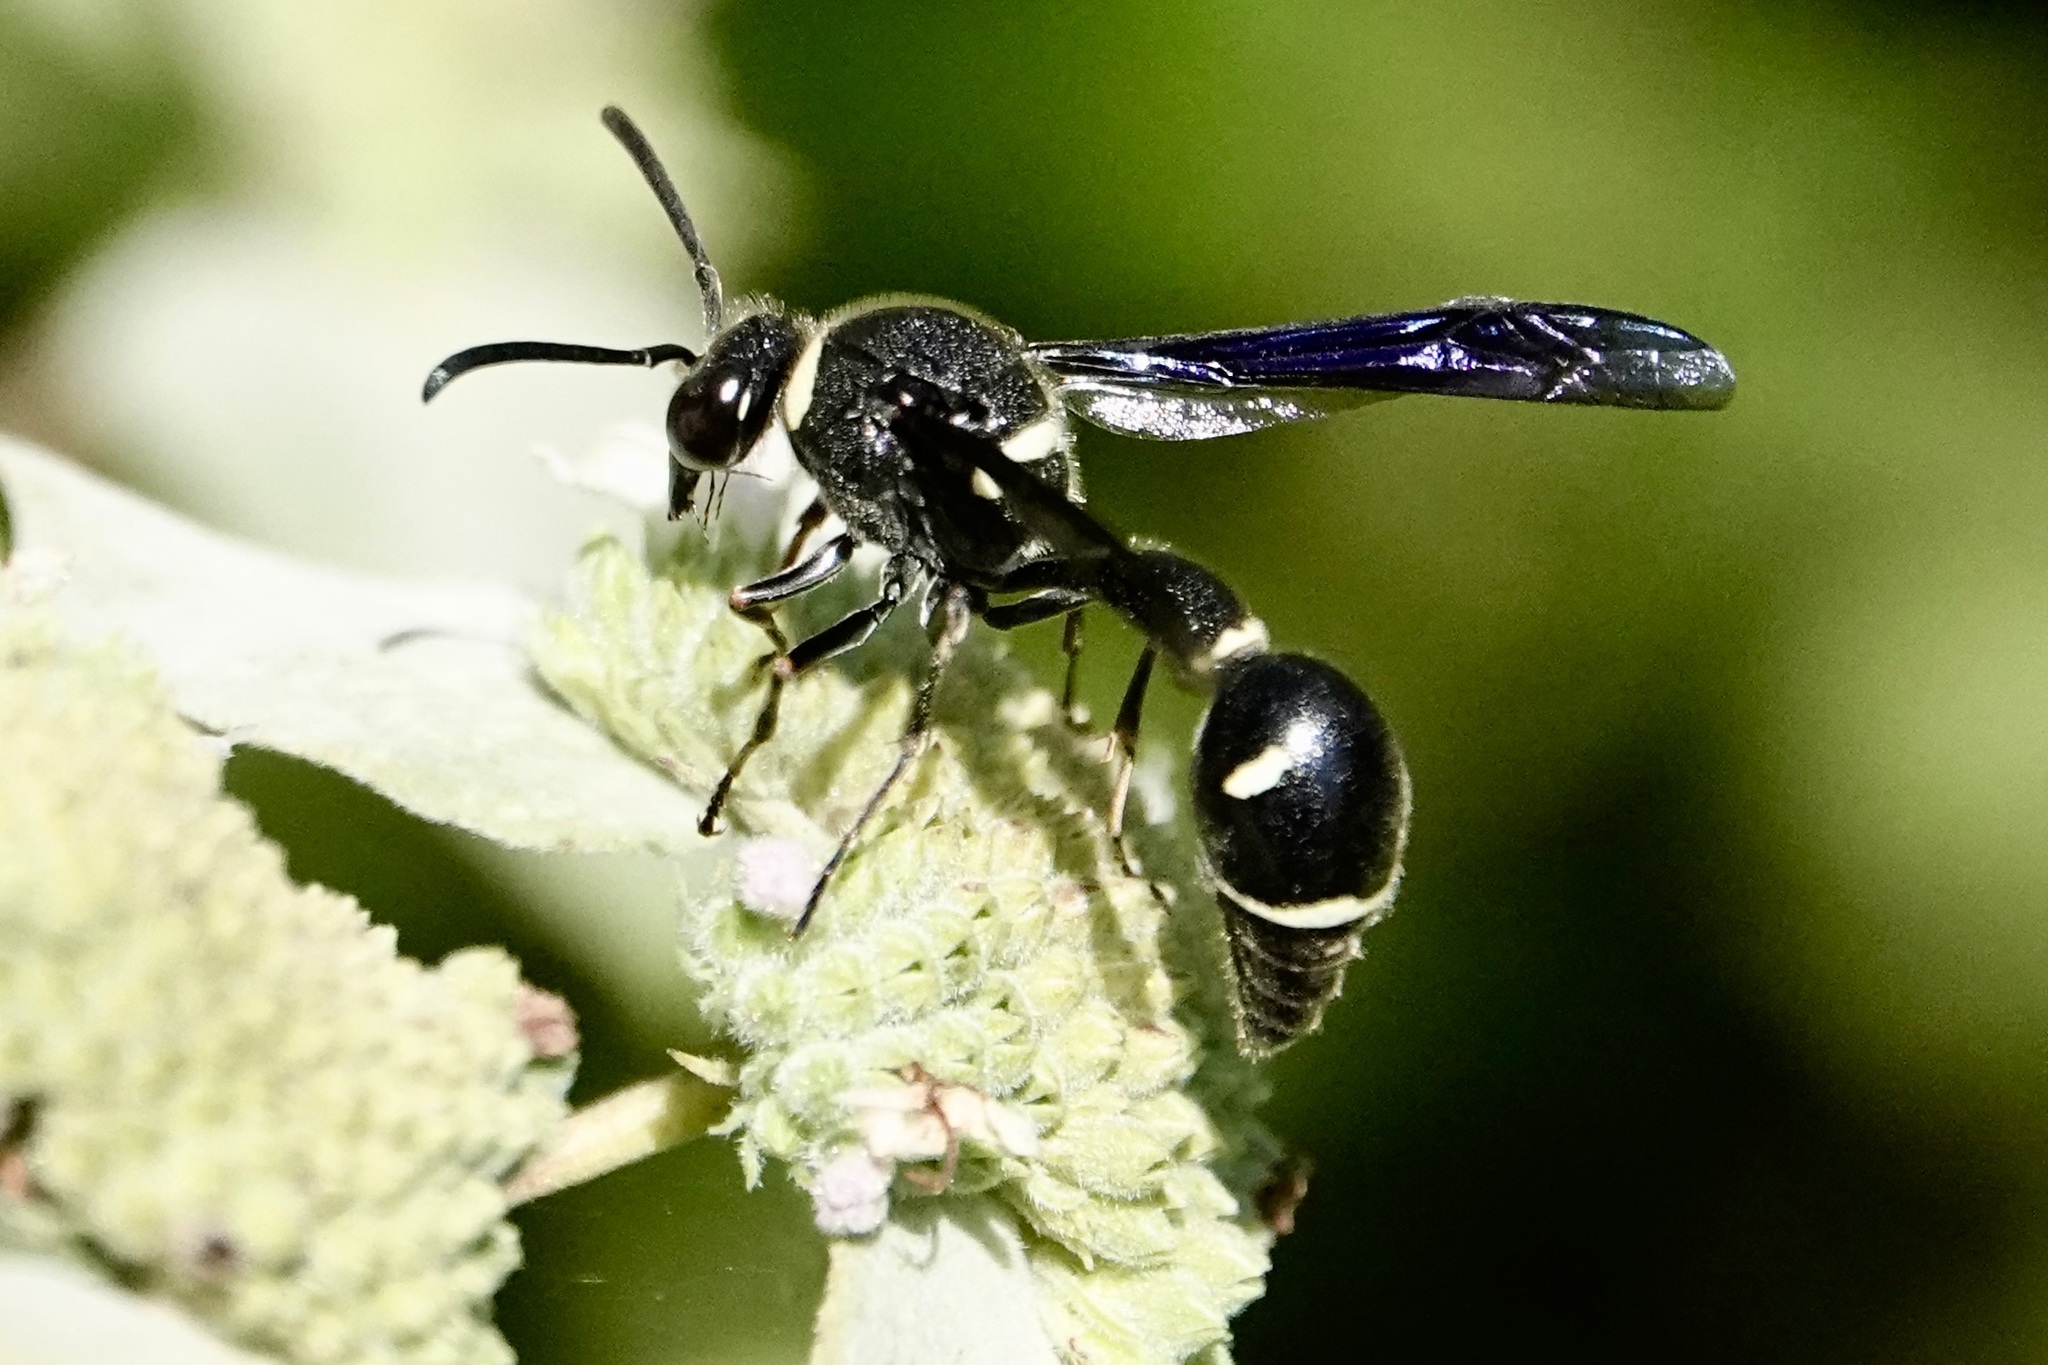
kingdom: Animalia
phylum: Arthropoda
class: Insecta
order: Hymenoptera
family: Vespidae
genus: Eumenes
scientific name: Eumenes fraternus
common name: Fraternal potter wasp
